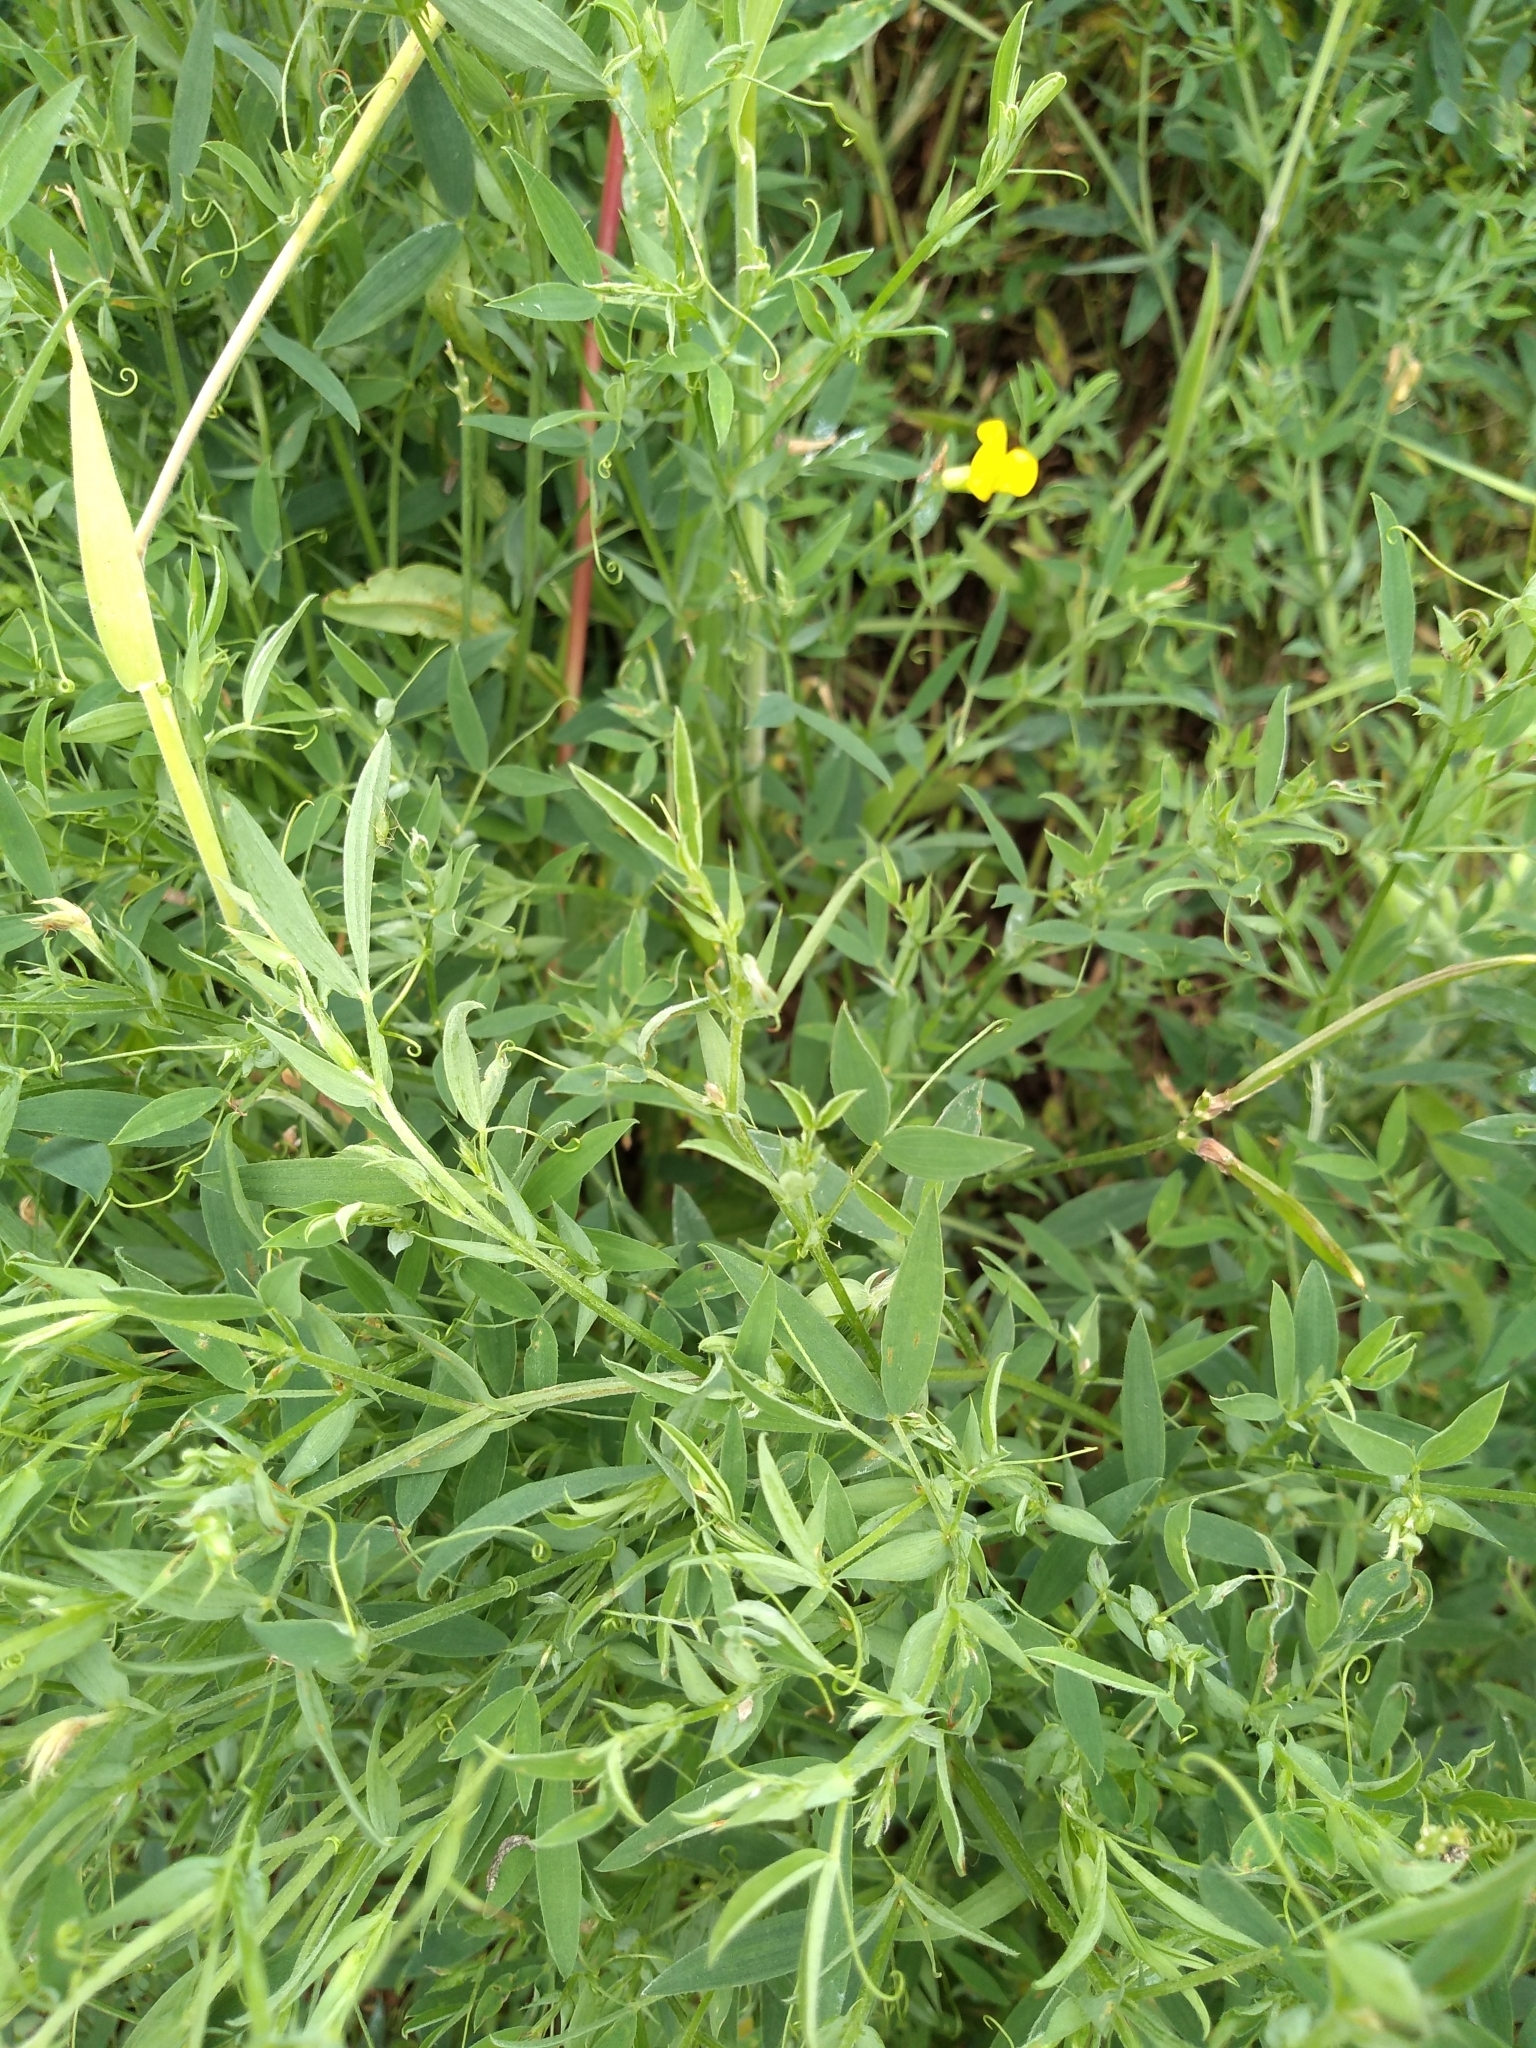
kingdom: Plantae
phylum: Tracheophyta
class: Magnoliopsida
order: Fabales
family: Fabaceae
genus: Lathyrus
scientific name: Lathyrus pratensis
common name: Meadow vetchling
